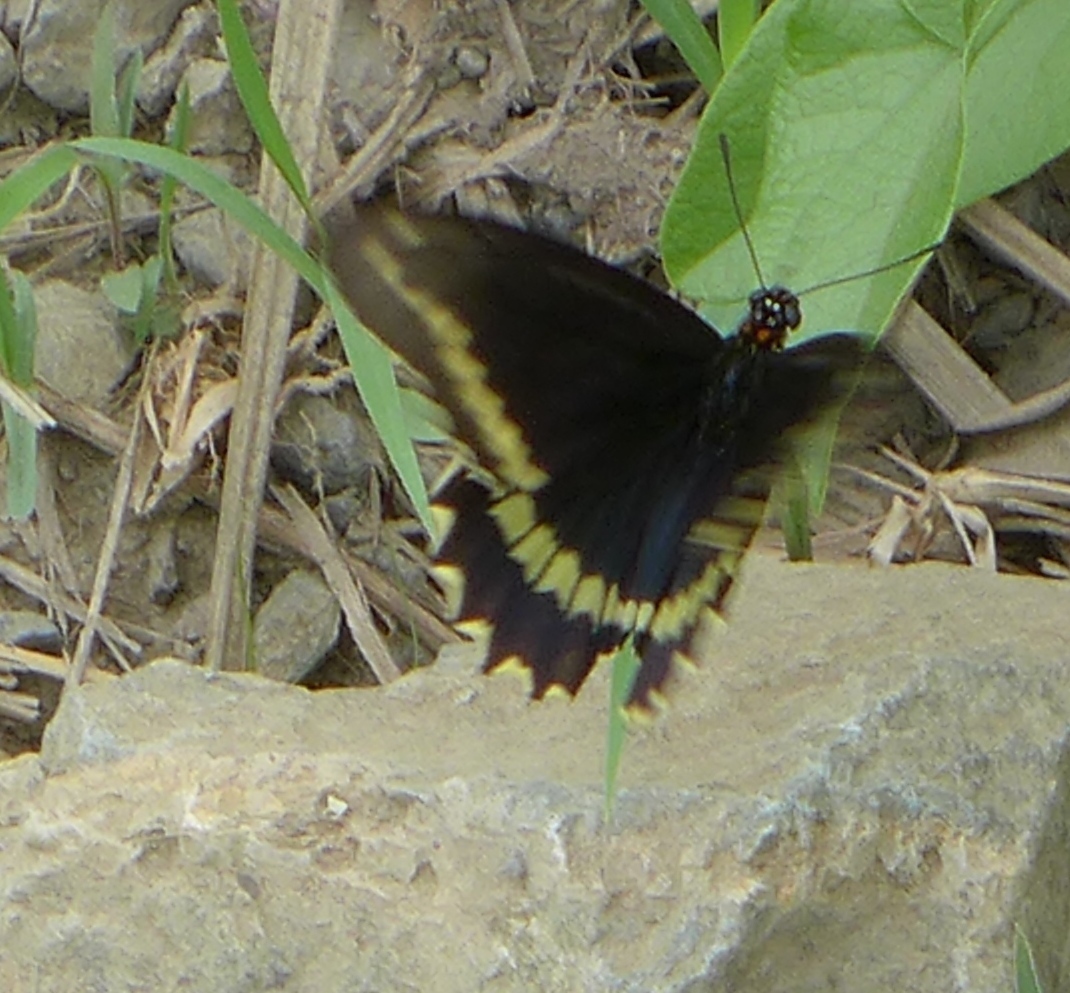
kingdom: Animalia
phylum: Arthropoda
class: Insecta
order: Lepidoptera
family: Papilionidae
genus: Battus
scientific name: Battus polydamas
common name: Polydamas swallowtail
